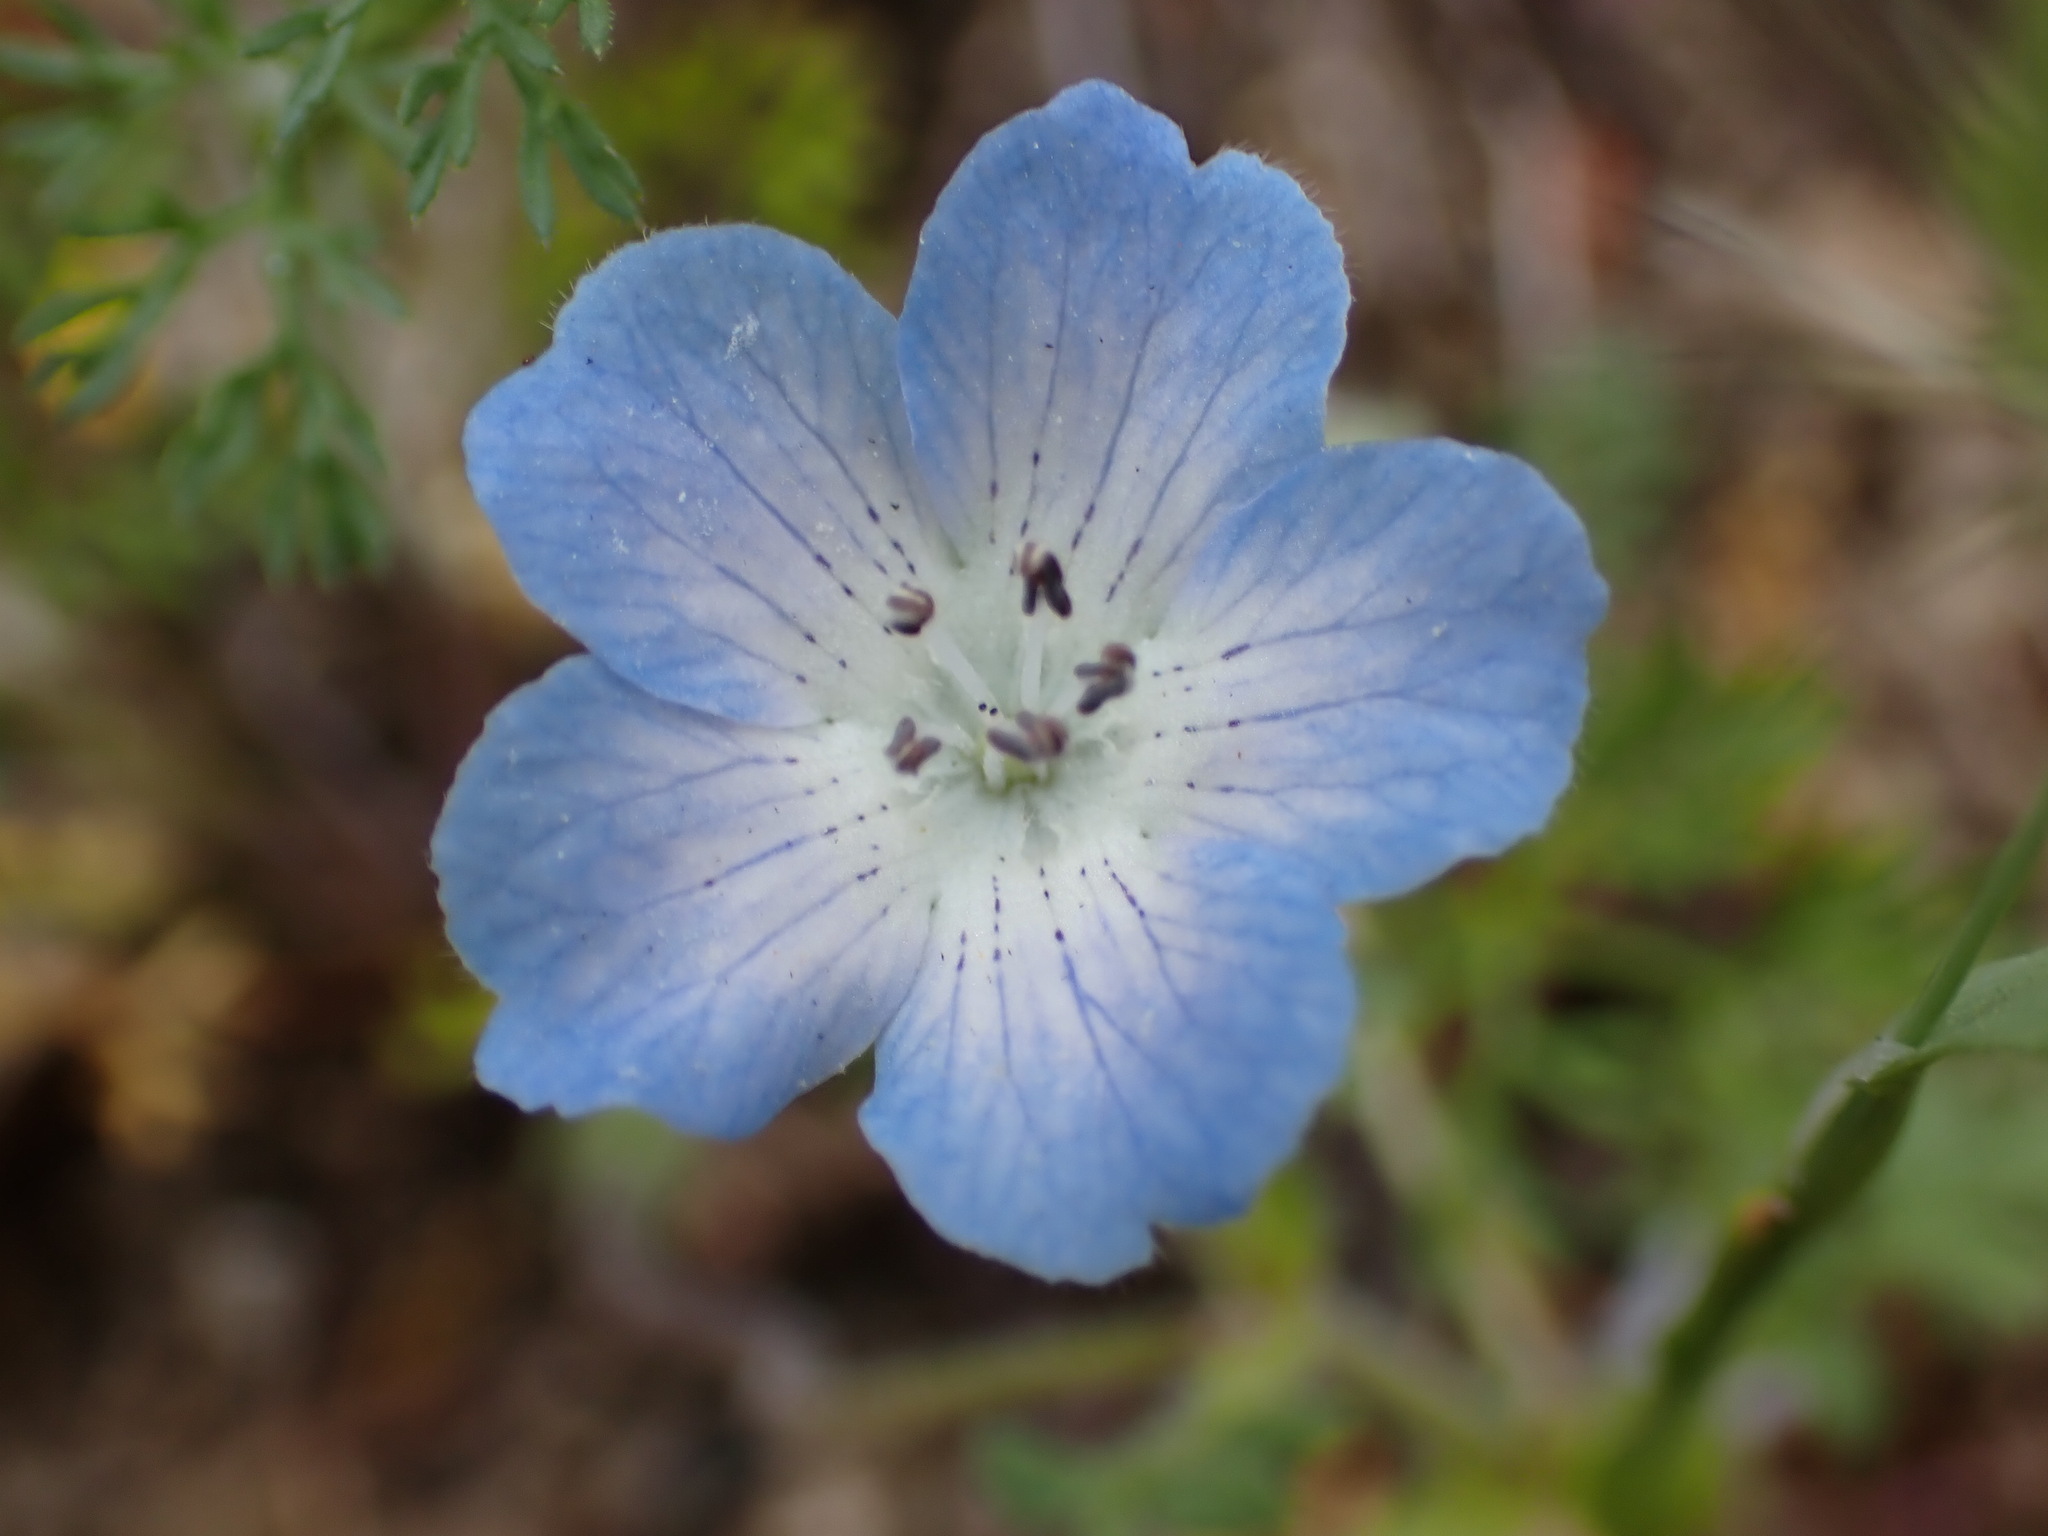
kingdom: Plantae
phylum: Tracheophyta
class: Magnoliopsida
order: Boraginales
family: Hydrophyllaceae
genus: Nemophila
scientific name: Nemophila menziesii
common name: Baby's-blue-eyes
